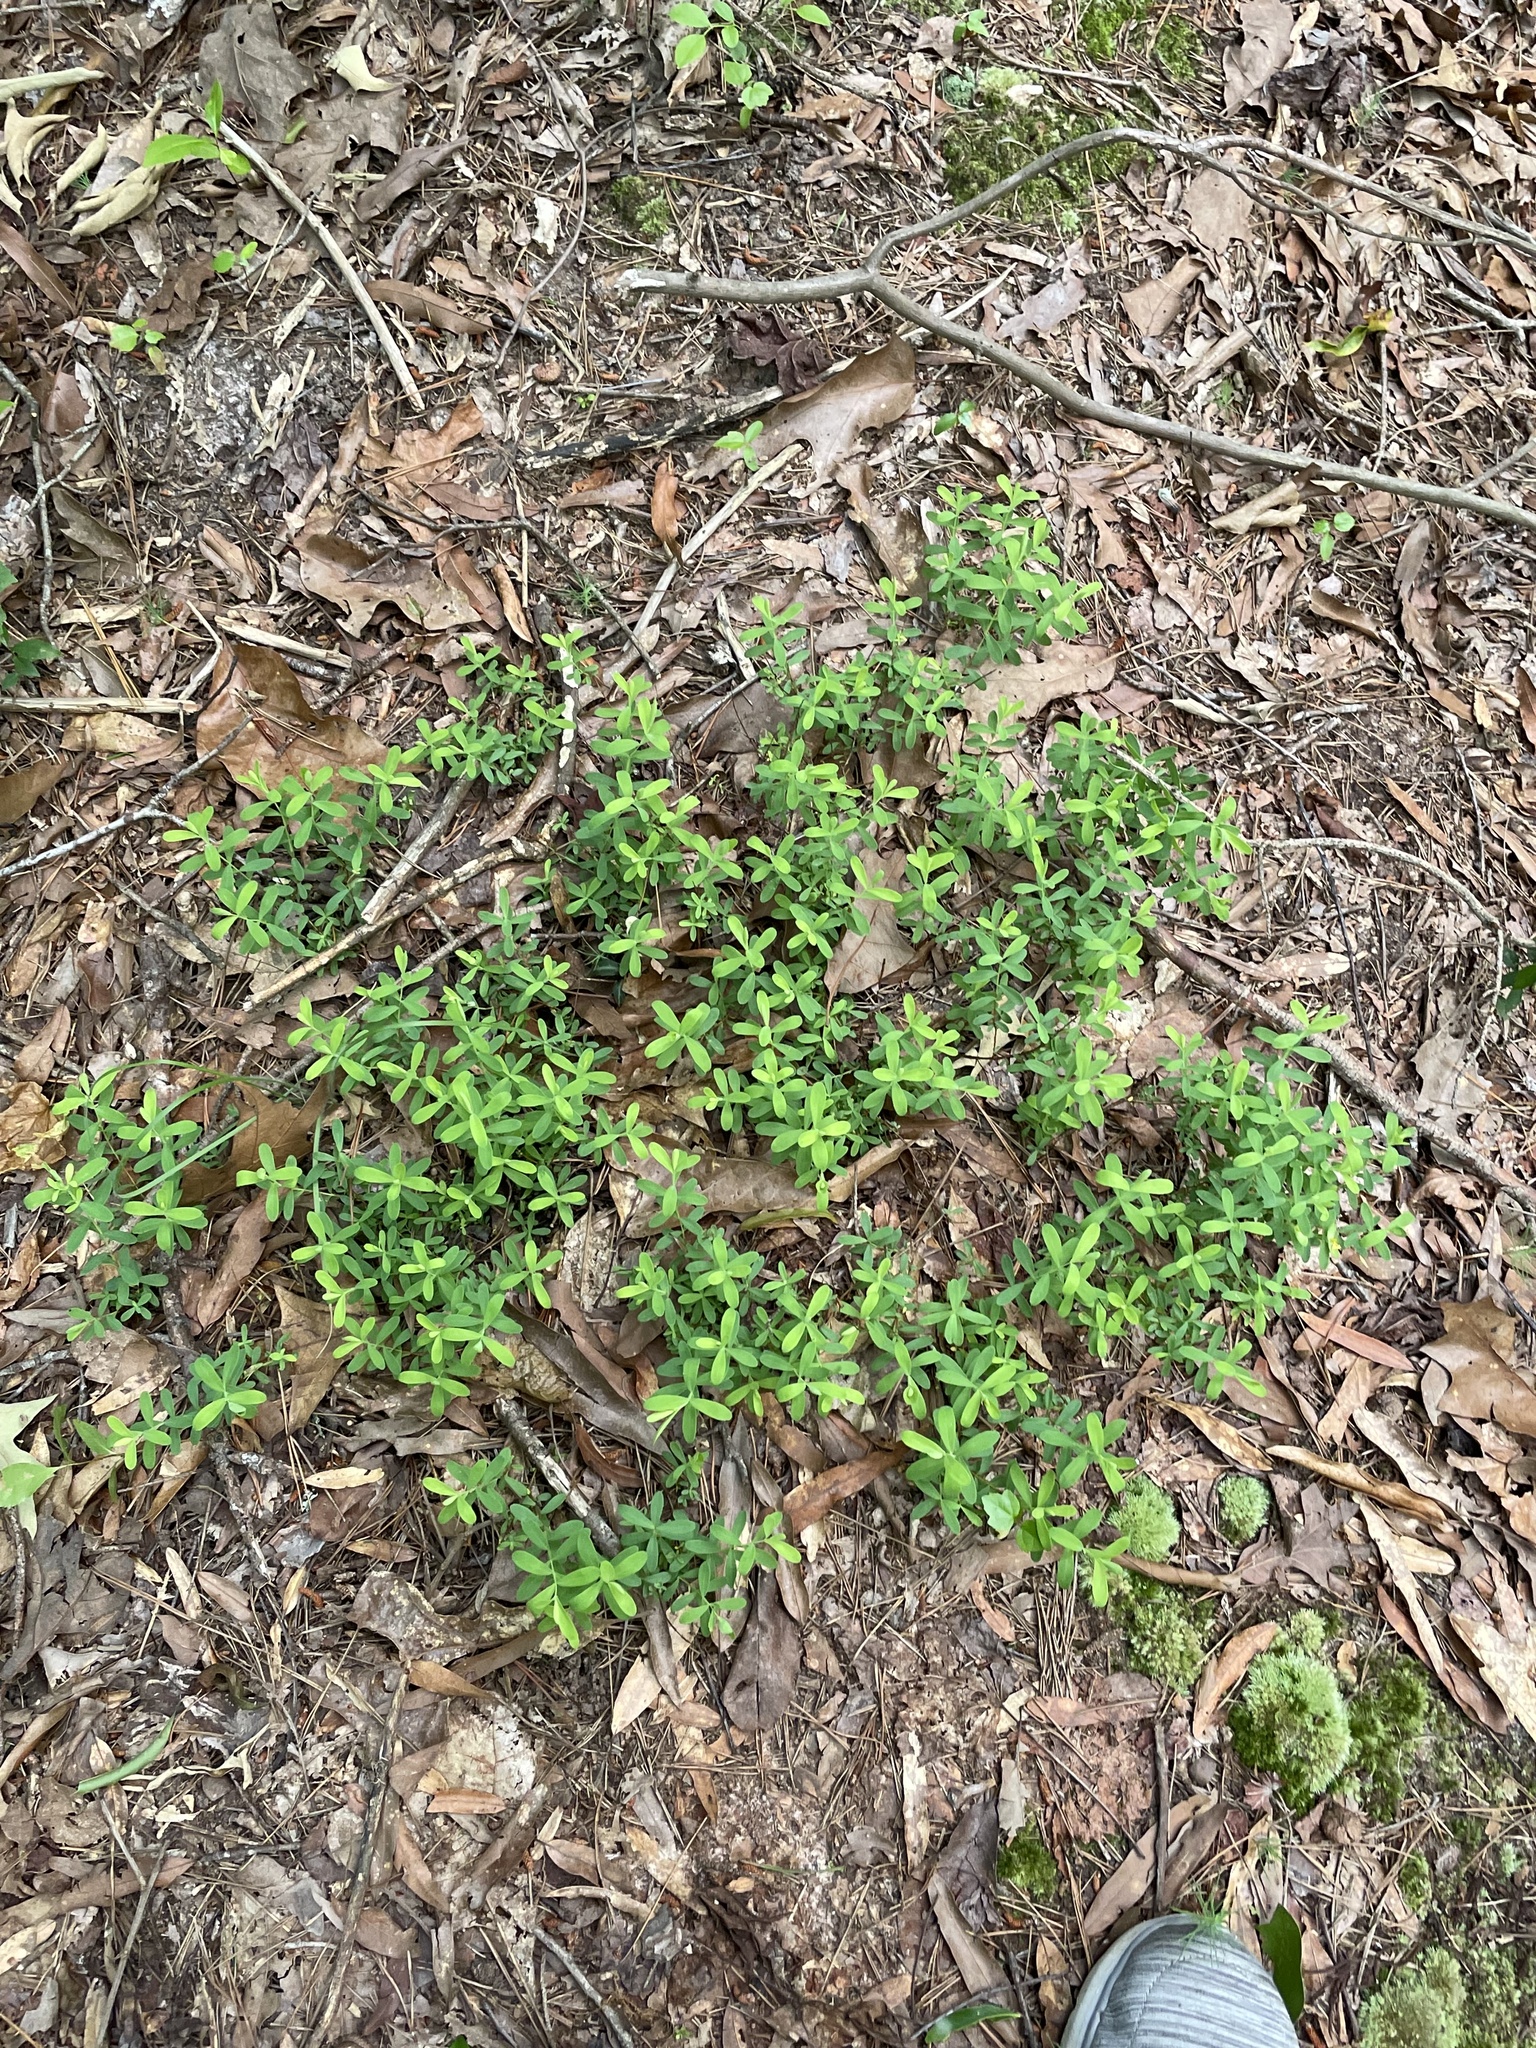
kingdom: Plantae
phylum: Tracheophyta
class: Magnoliopsida
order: Malpighiales
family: Hypericaceae
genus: Hypericum
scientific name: Hypericum hypericoides
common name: St. andrew's cross
